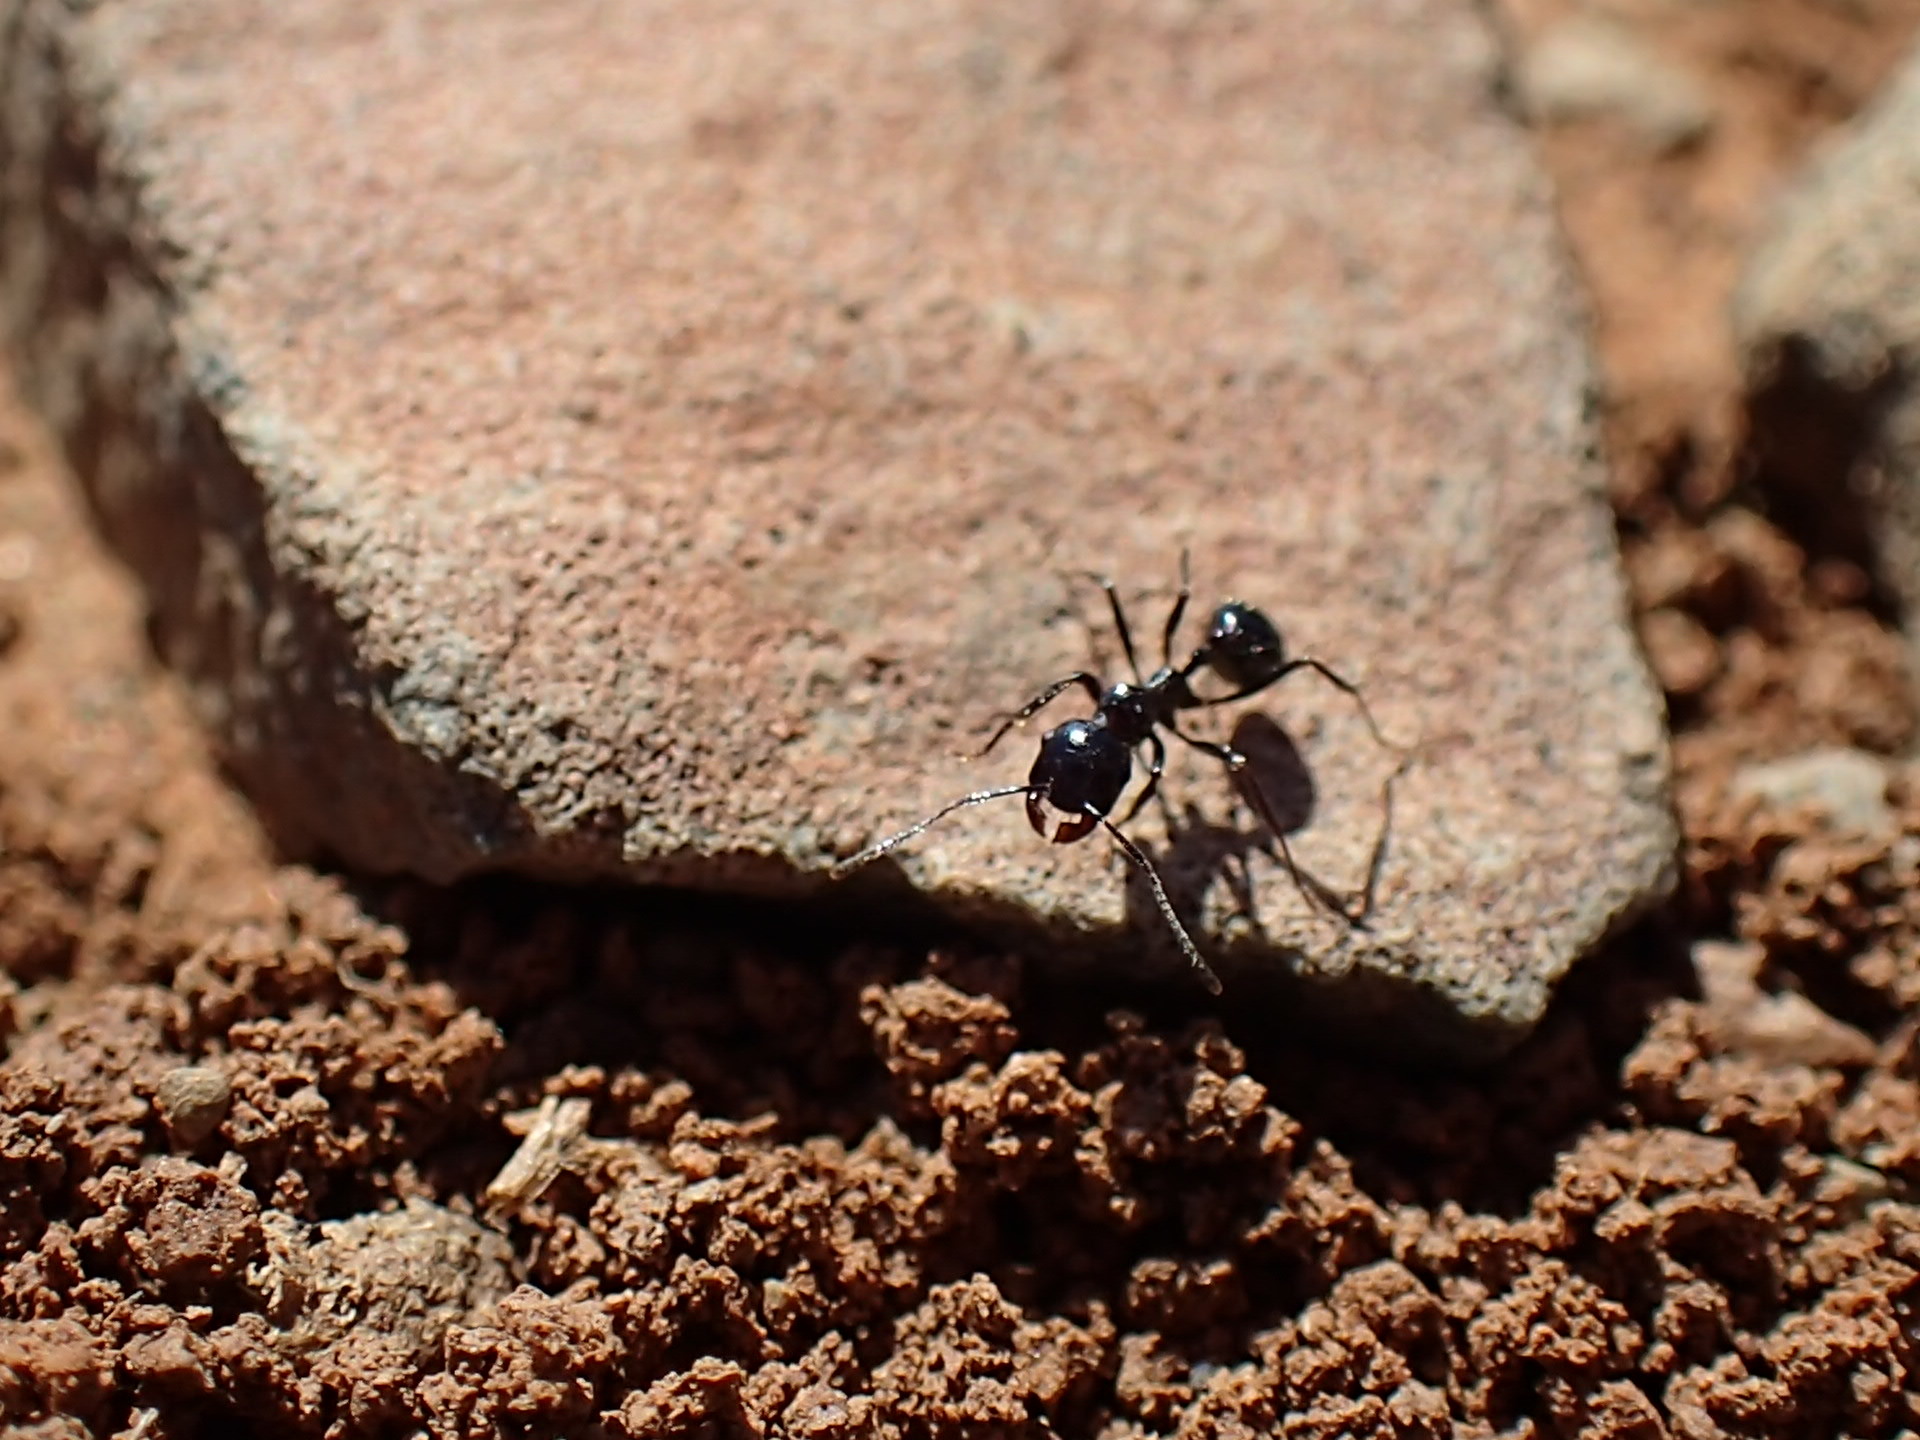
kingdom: Animalia
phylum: Arthropoda
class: Insecta
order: Hymenoptera
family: Formicidae
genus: Messor
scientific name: Messor capensis
